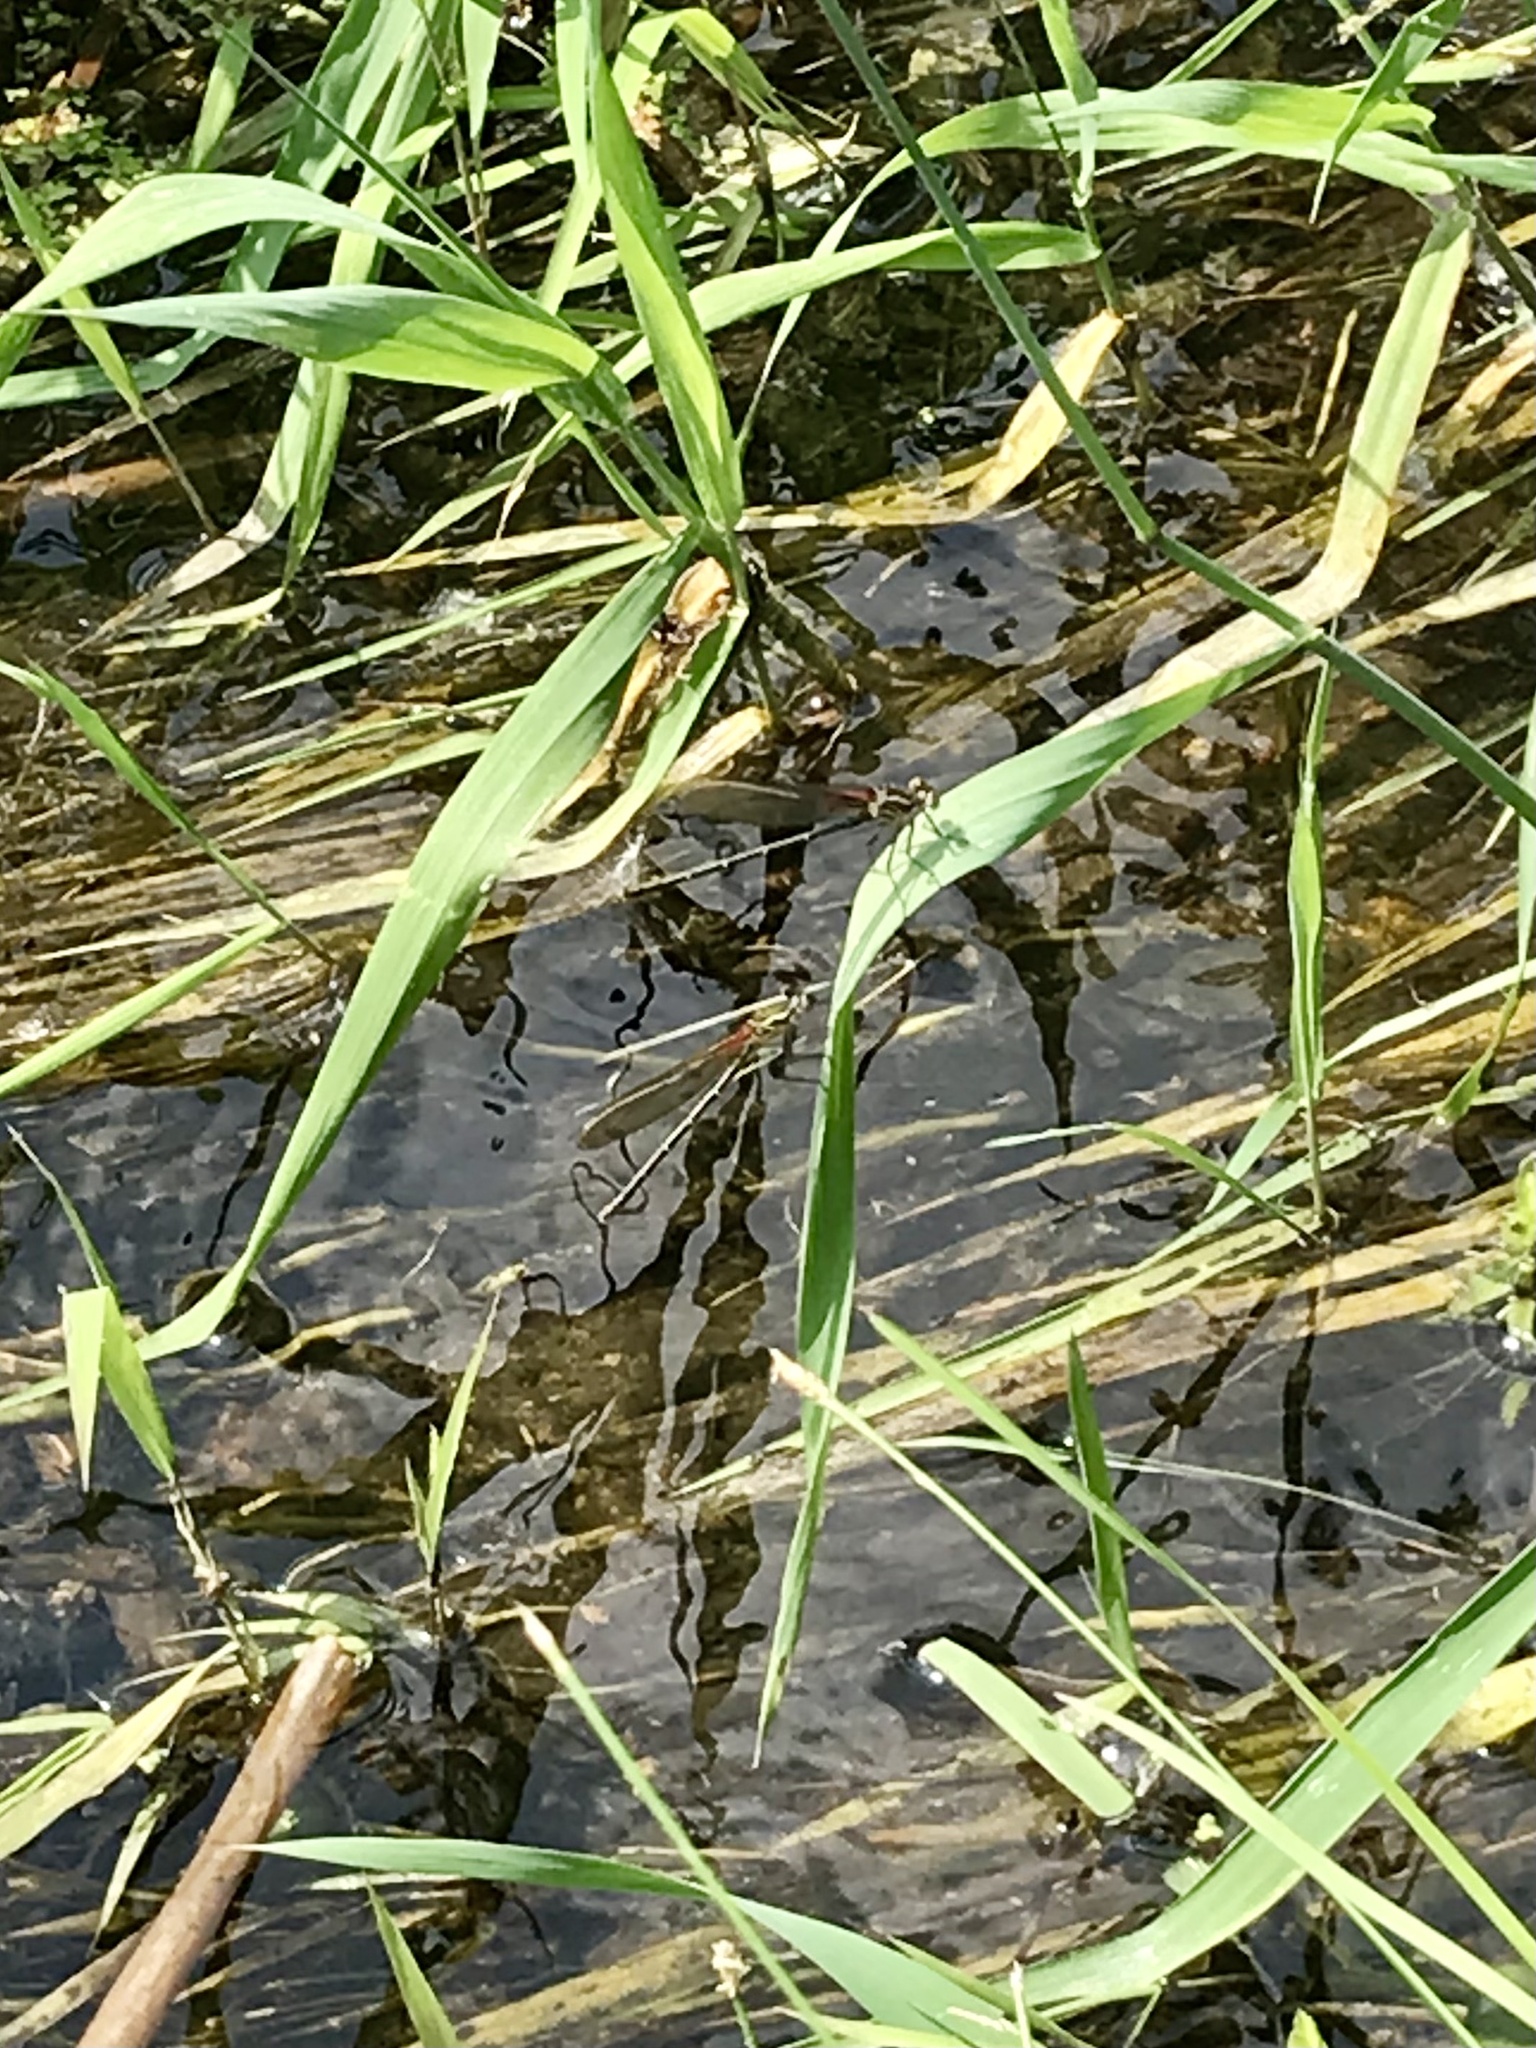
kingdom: Animalia
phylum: Arthropoda
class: Insecta
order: Odonata
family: Calopterygidae
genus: Hetaerina
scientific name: Hetaerina americana
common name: American rubyspot
